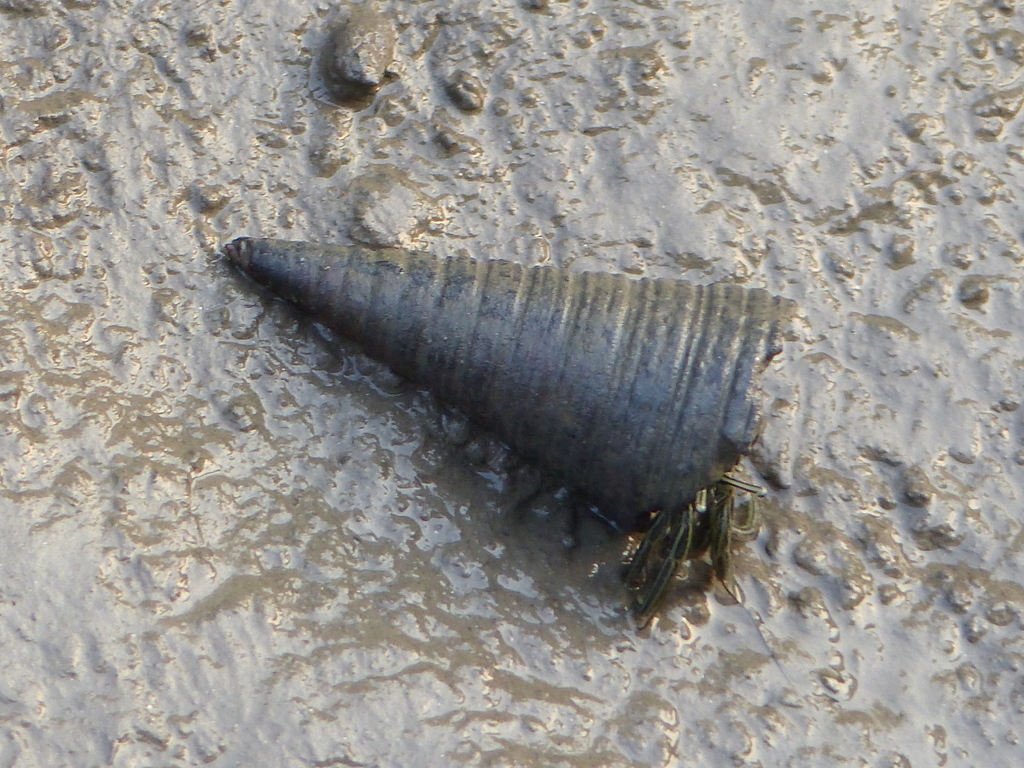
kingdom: Animalia
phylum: Mollusca
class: Gastropoda
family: Potamididae
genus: Telescopium
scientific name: Telescopium telescopium
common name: Telescope creeper
